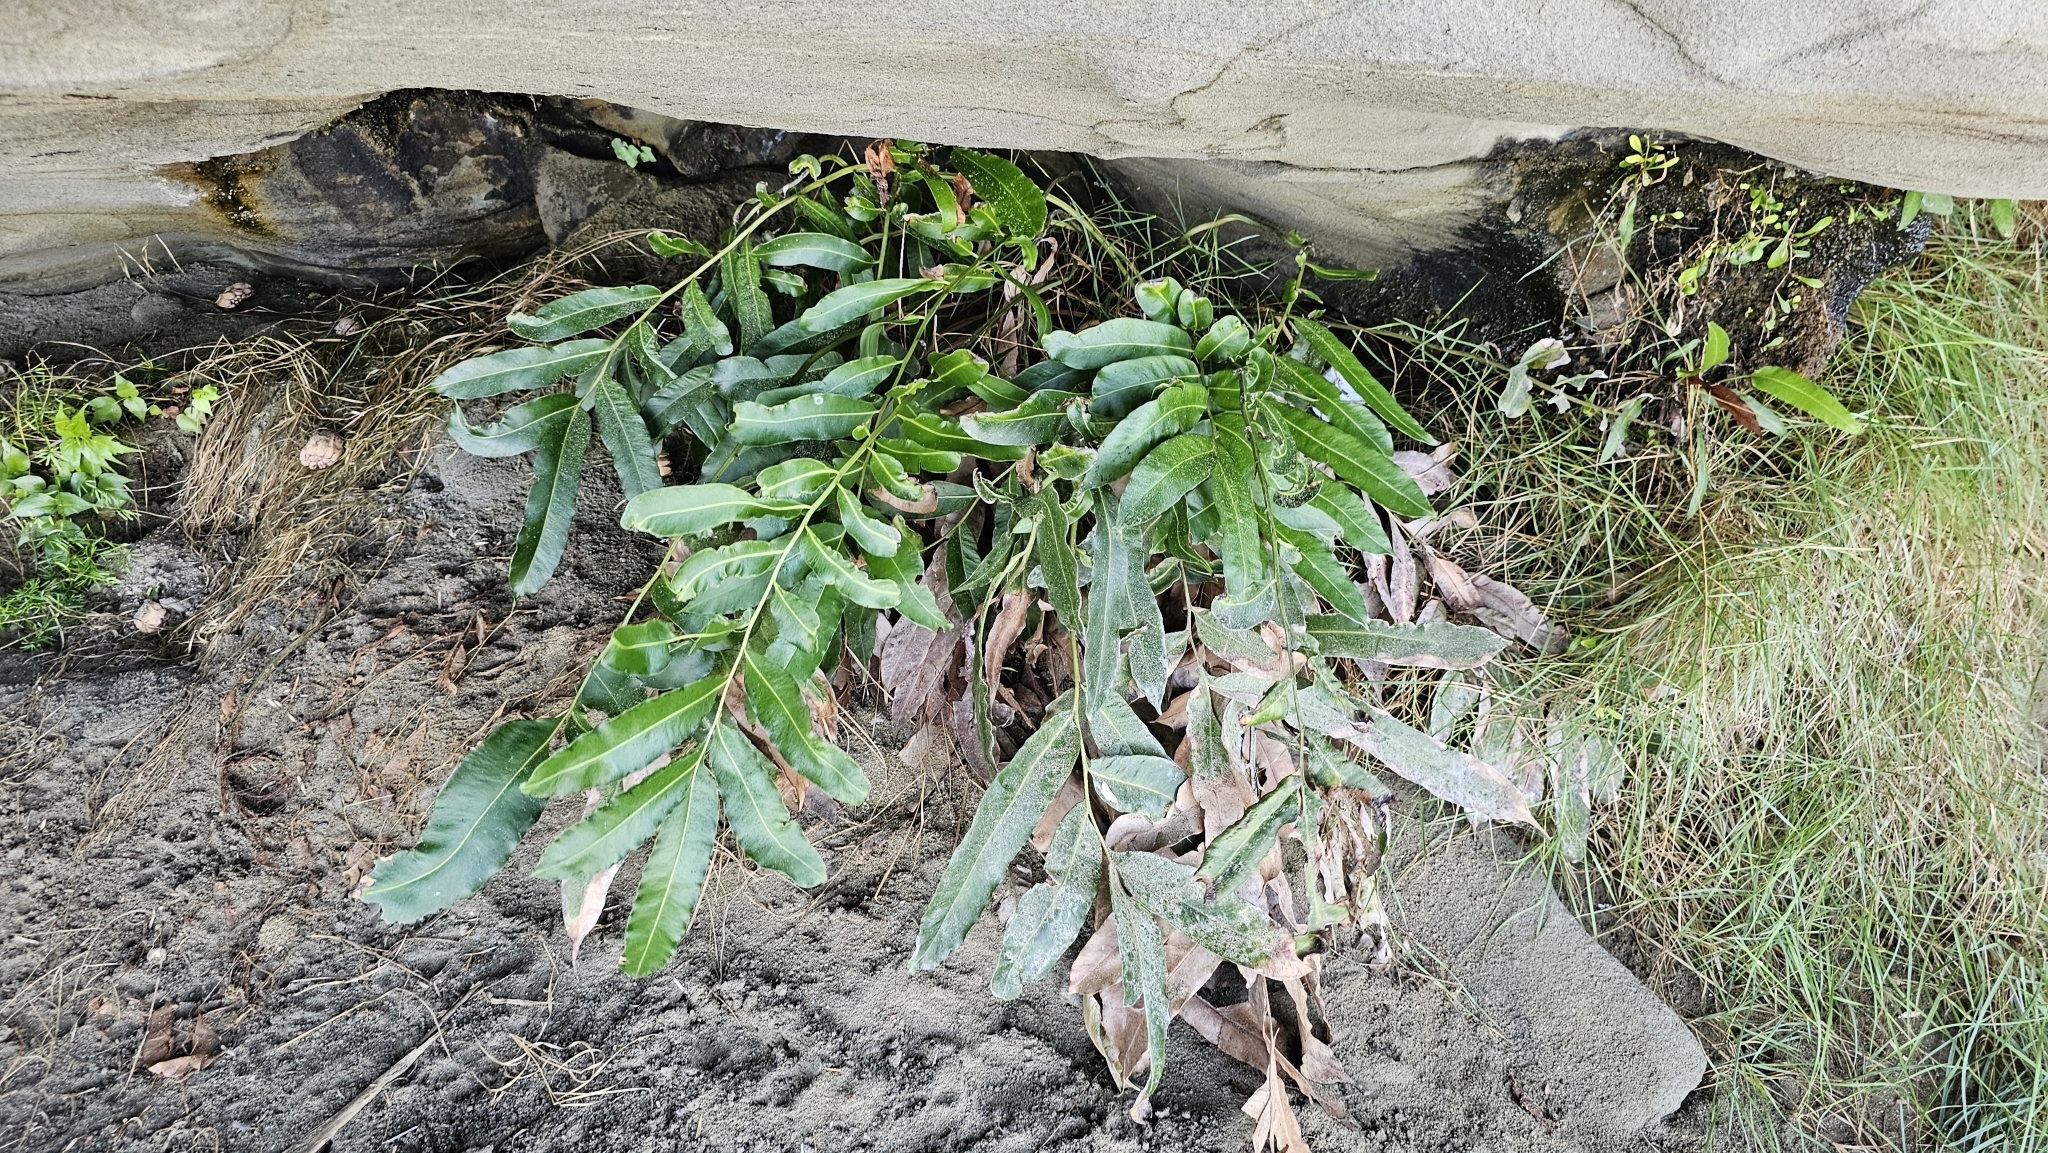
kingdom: Plantae
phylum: Tracheophyta
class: Polypodiopsida
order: Polypodiales
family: Pteridaceae
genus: Acrostichum
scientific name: Acrostichum speciosum
